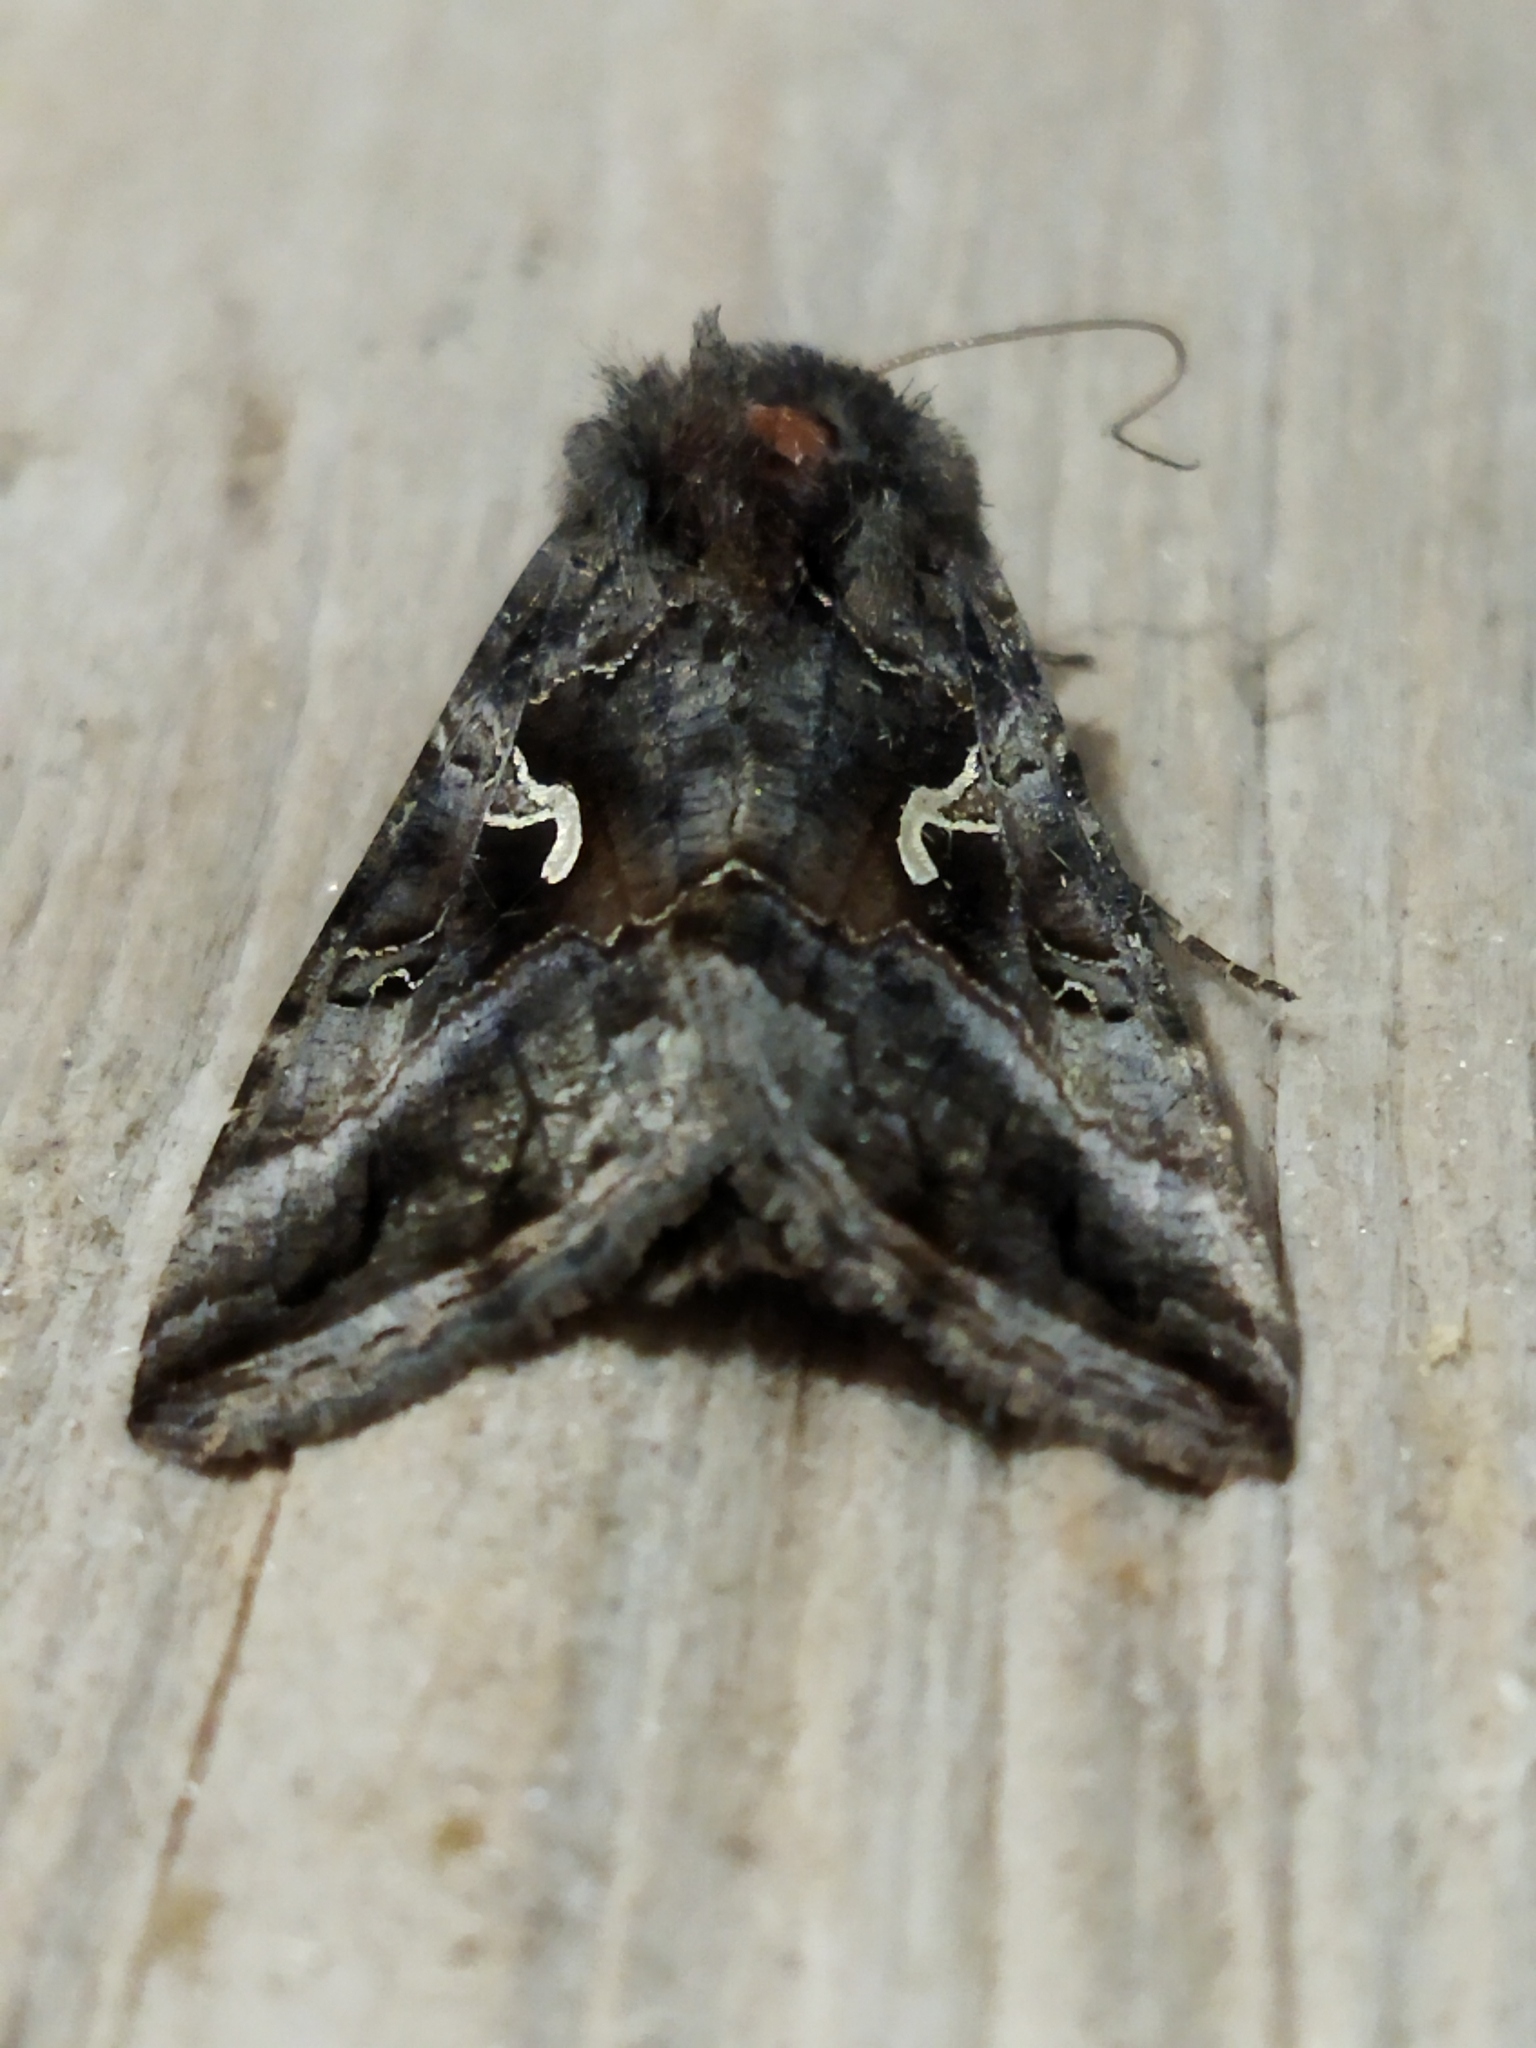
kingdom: Animalia
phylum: Arthropoda
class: Insecta
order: Lepidoptera
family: Noctuidae
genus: Autographa
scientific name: Autographa gamma
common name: Silver y
